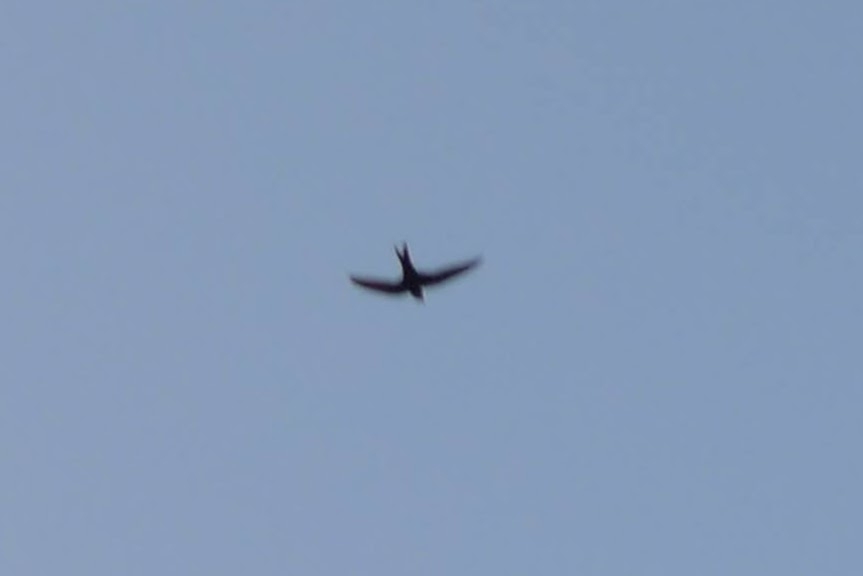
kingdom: Animalia
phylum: Chordata
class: Aves
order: Apodiformes
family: Apodidae
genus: Apus
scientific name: Apus apus
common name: Common swift
